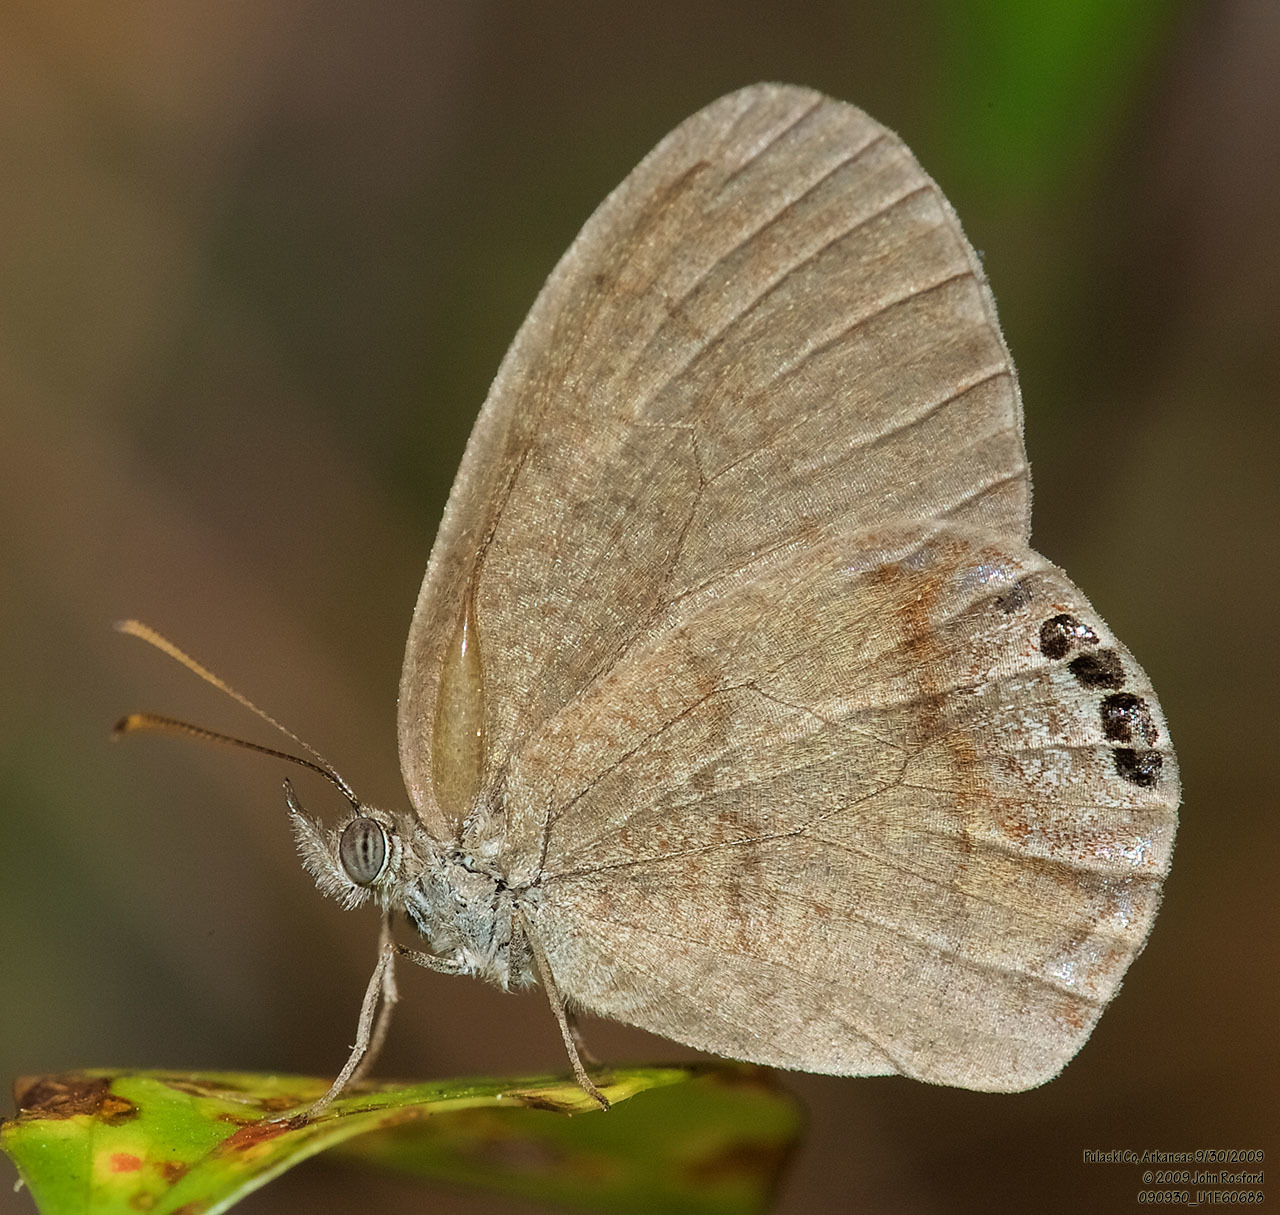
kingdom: Animalia
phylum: Arthropoda
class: Insecta
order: Lepidoptera
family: Nymphalidae
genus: Euptychia
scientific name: Euptychia cornelius
